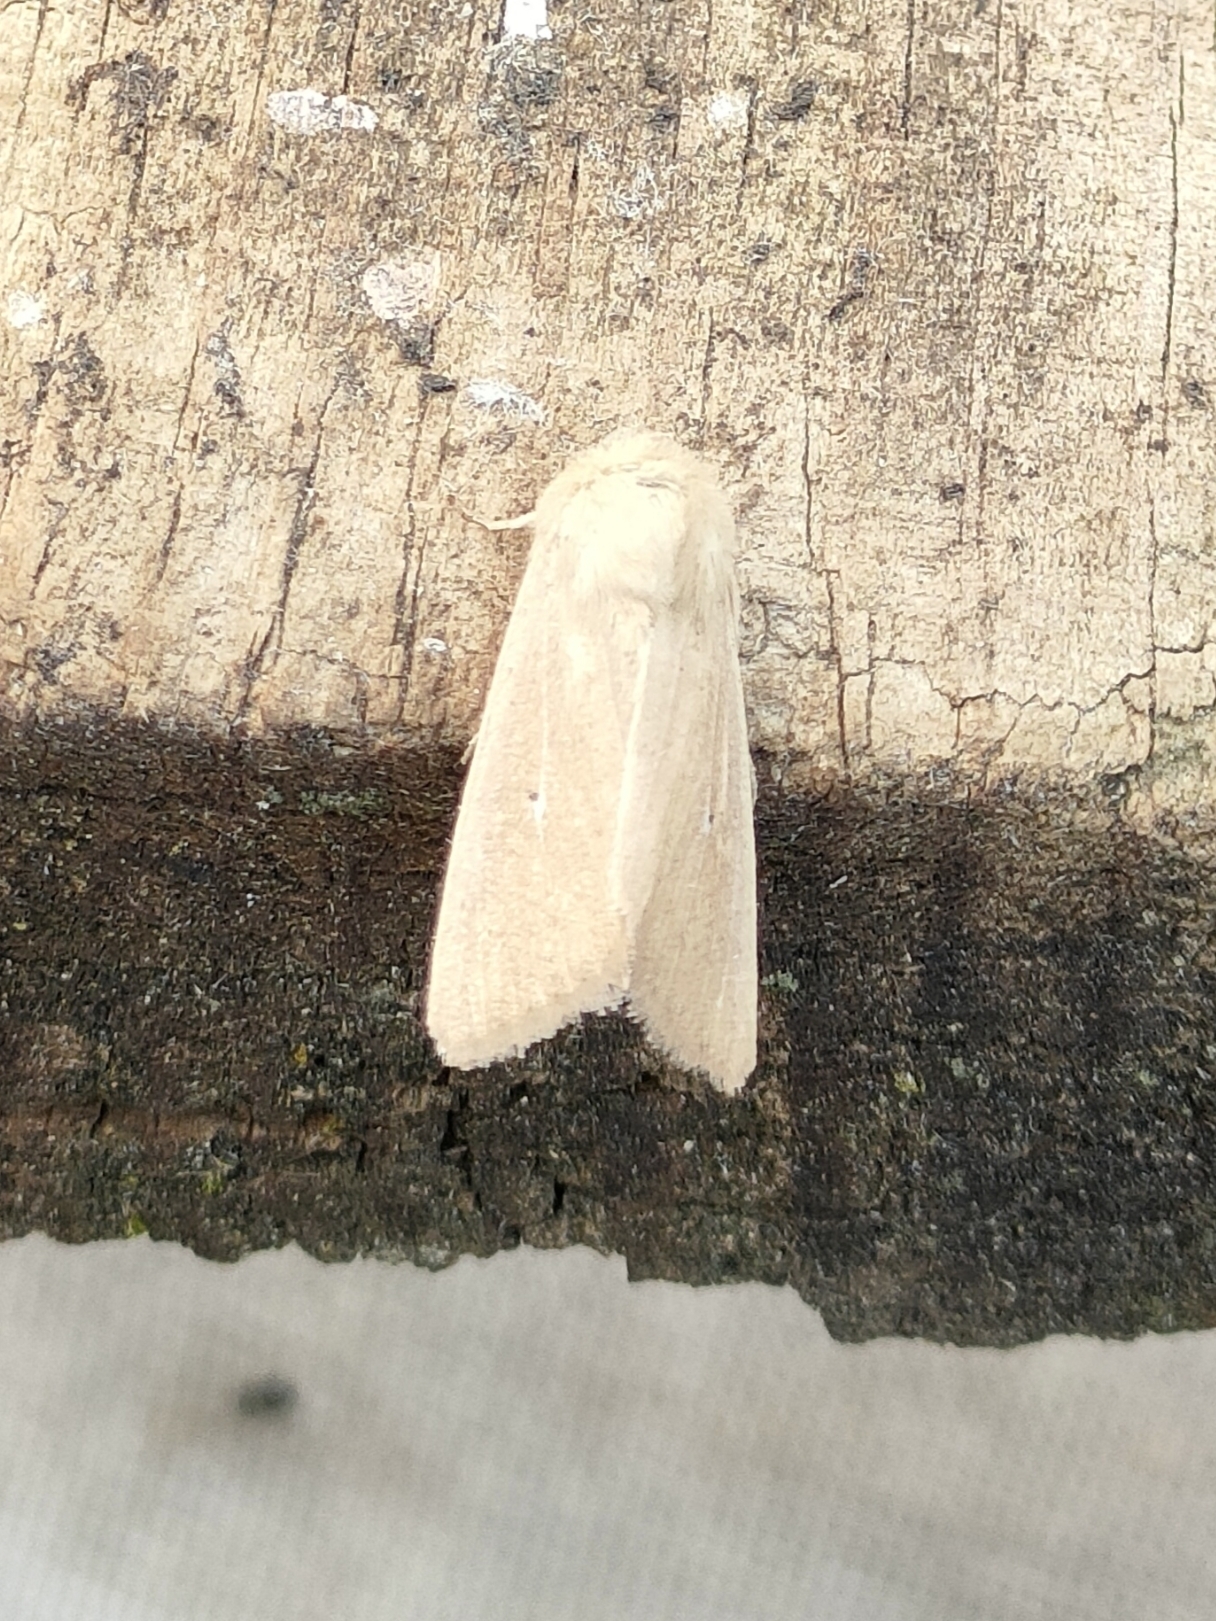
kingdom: Animalia
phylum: Arthropoda
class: Insecta
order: Lepidoptera
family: Noctuidae
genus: Mythimna
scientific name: Mythimna sicula
